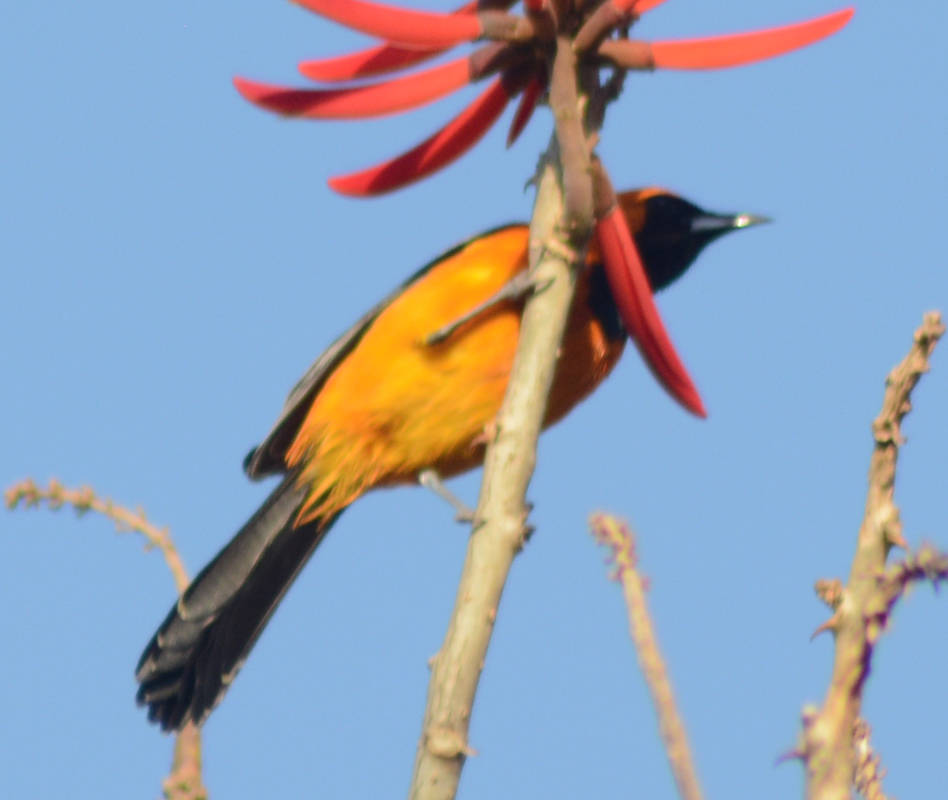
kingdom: Animalia
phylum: Chordata
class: Aves
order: Passeriformes
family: Icteridae
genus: Icterus
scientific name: Icterus cucullatus
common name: Hooded oriole
